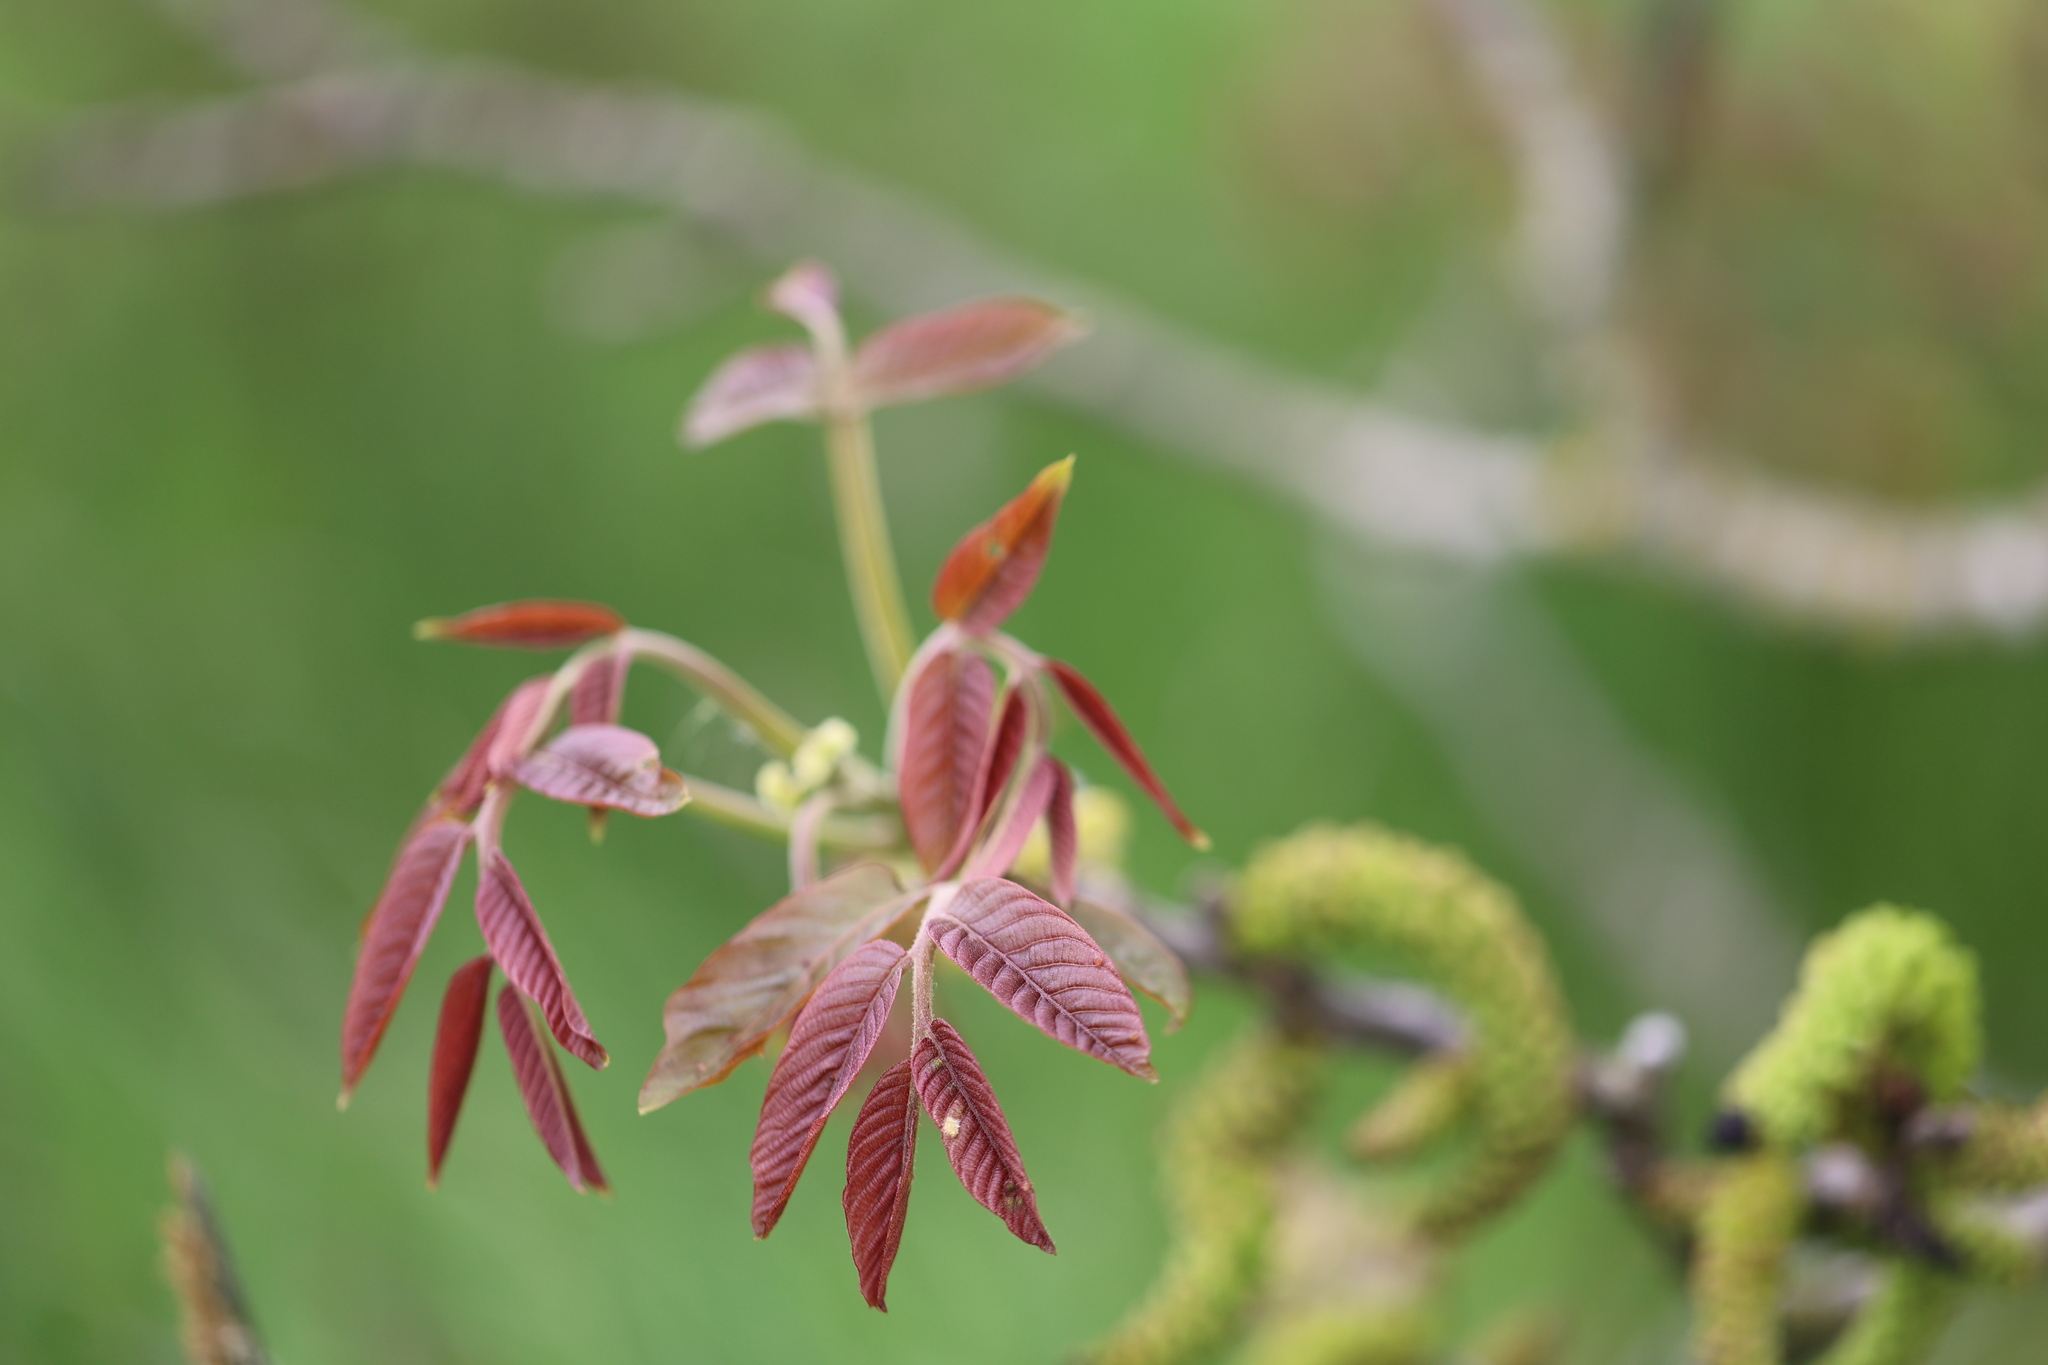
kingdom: Plantae
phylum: Tracheophyta
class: Magnoliopsida
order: Fagales
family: Juglandaceae
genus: Juglans
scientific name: Juglans regia
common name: Walnut
